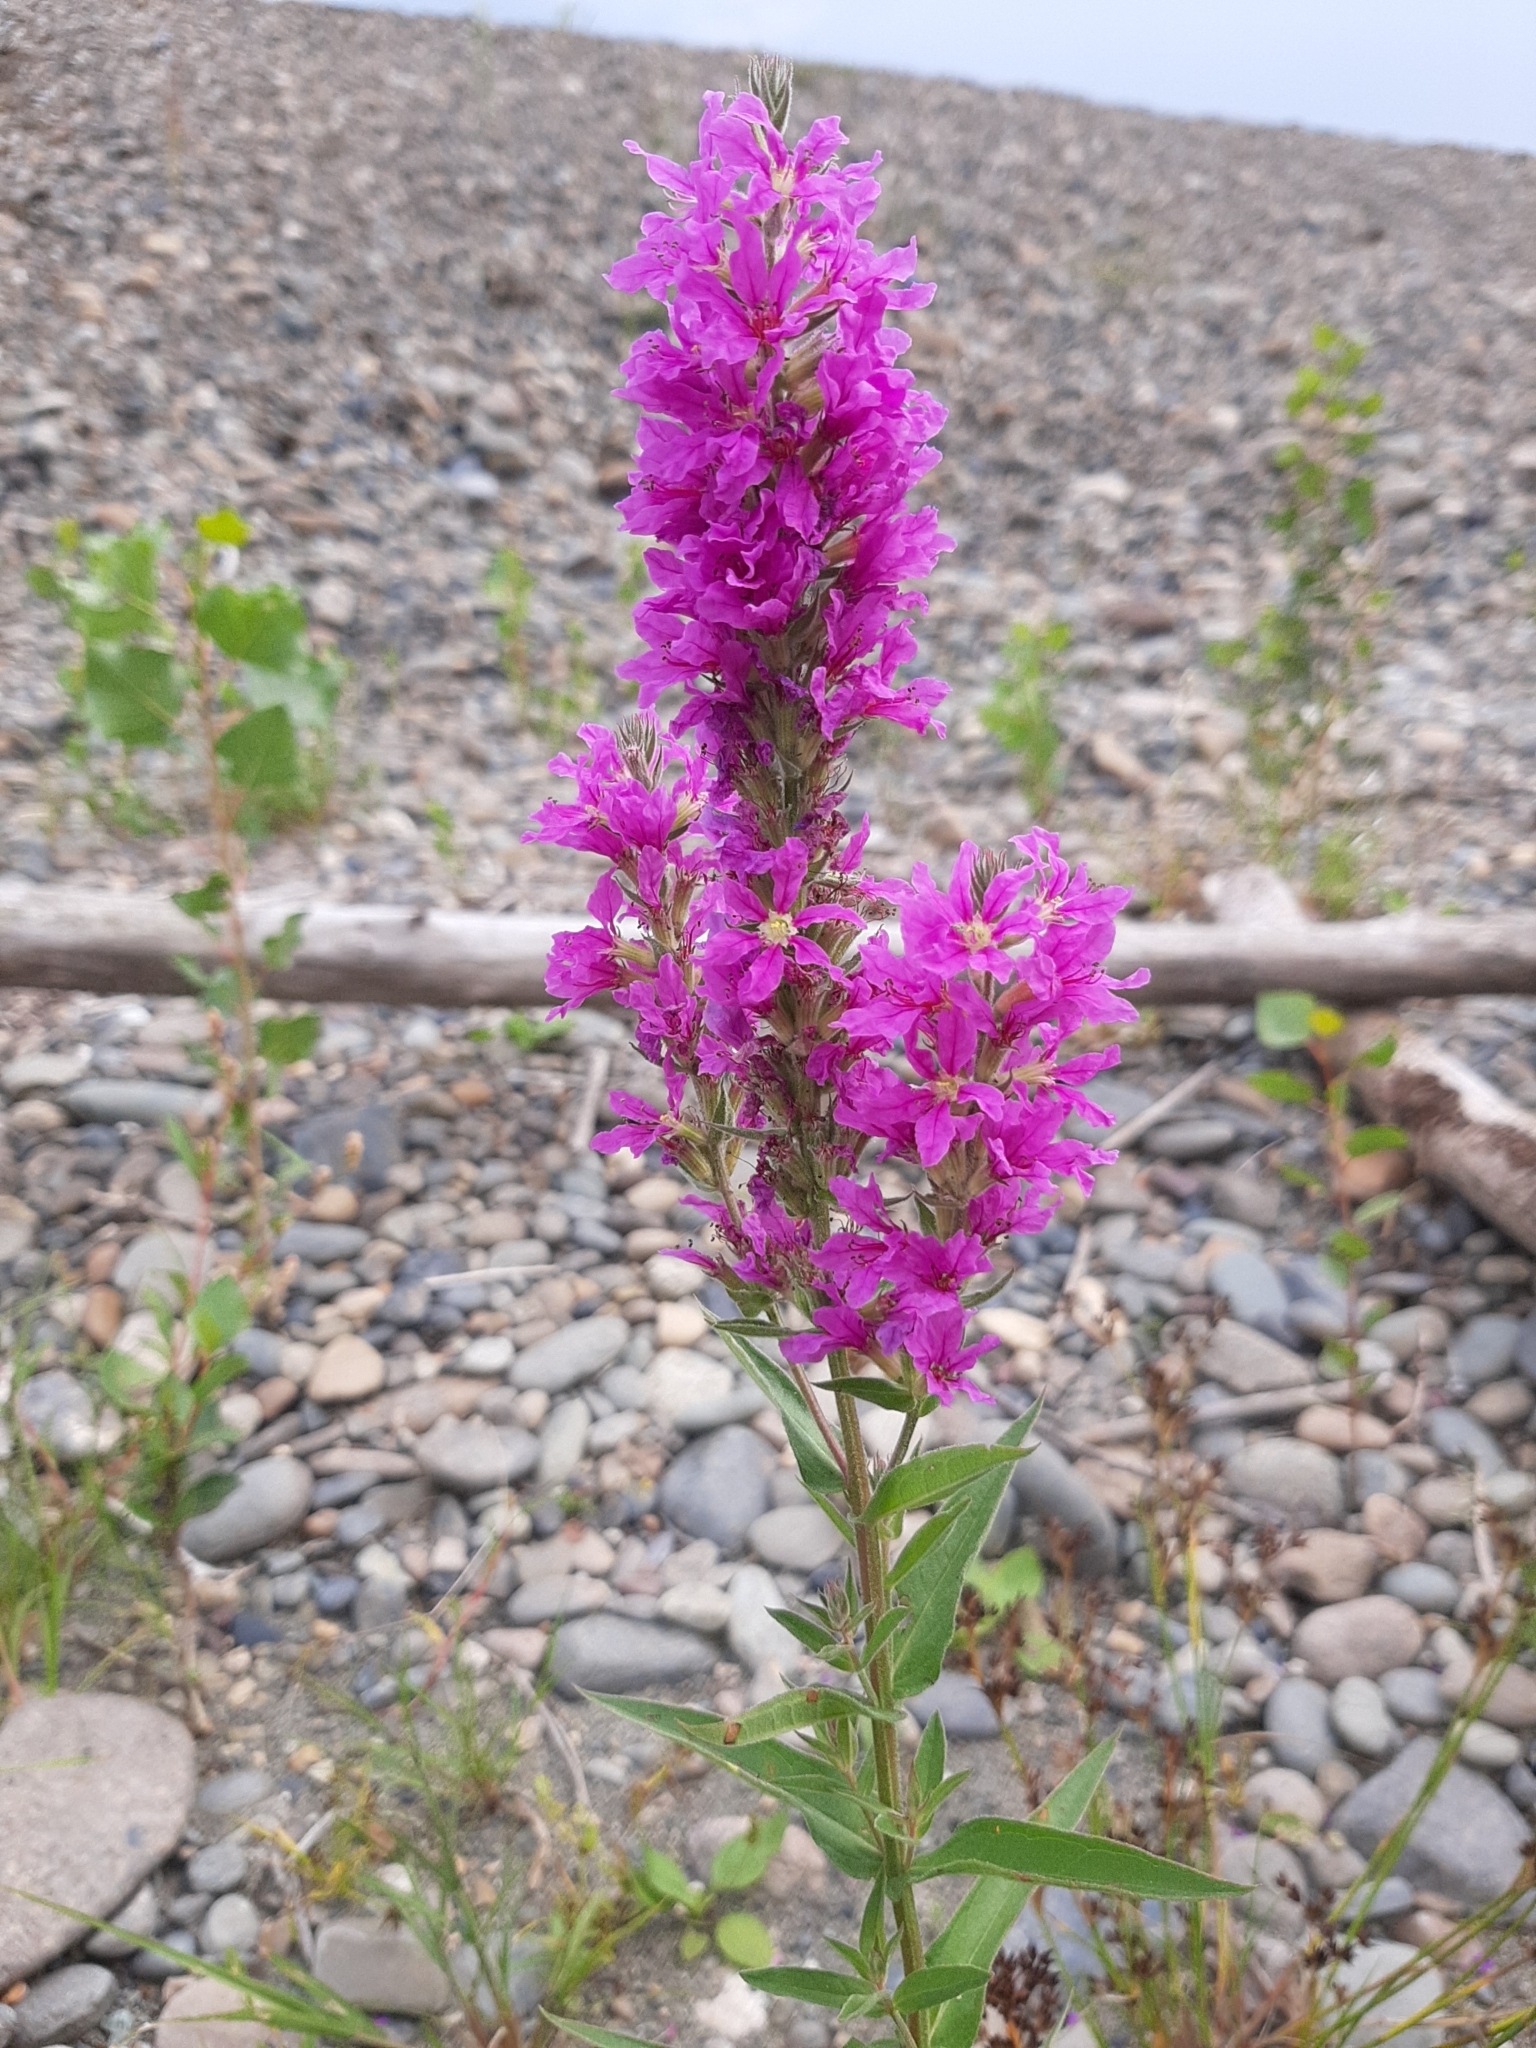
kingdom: Plantae
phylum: Tracheophyta
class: Magnoliopsida
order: Myrtales
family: Lythraceae
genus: Lythrum
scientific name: Lythrum salicaria
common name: Purple loosestrife
